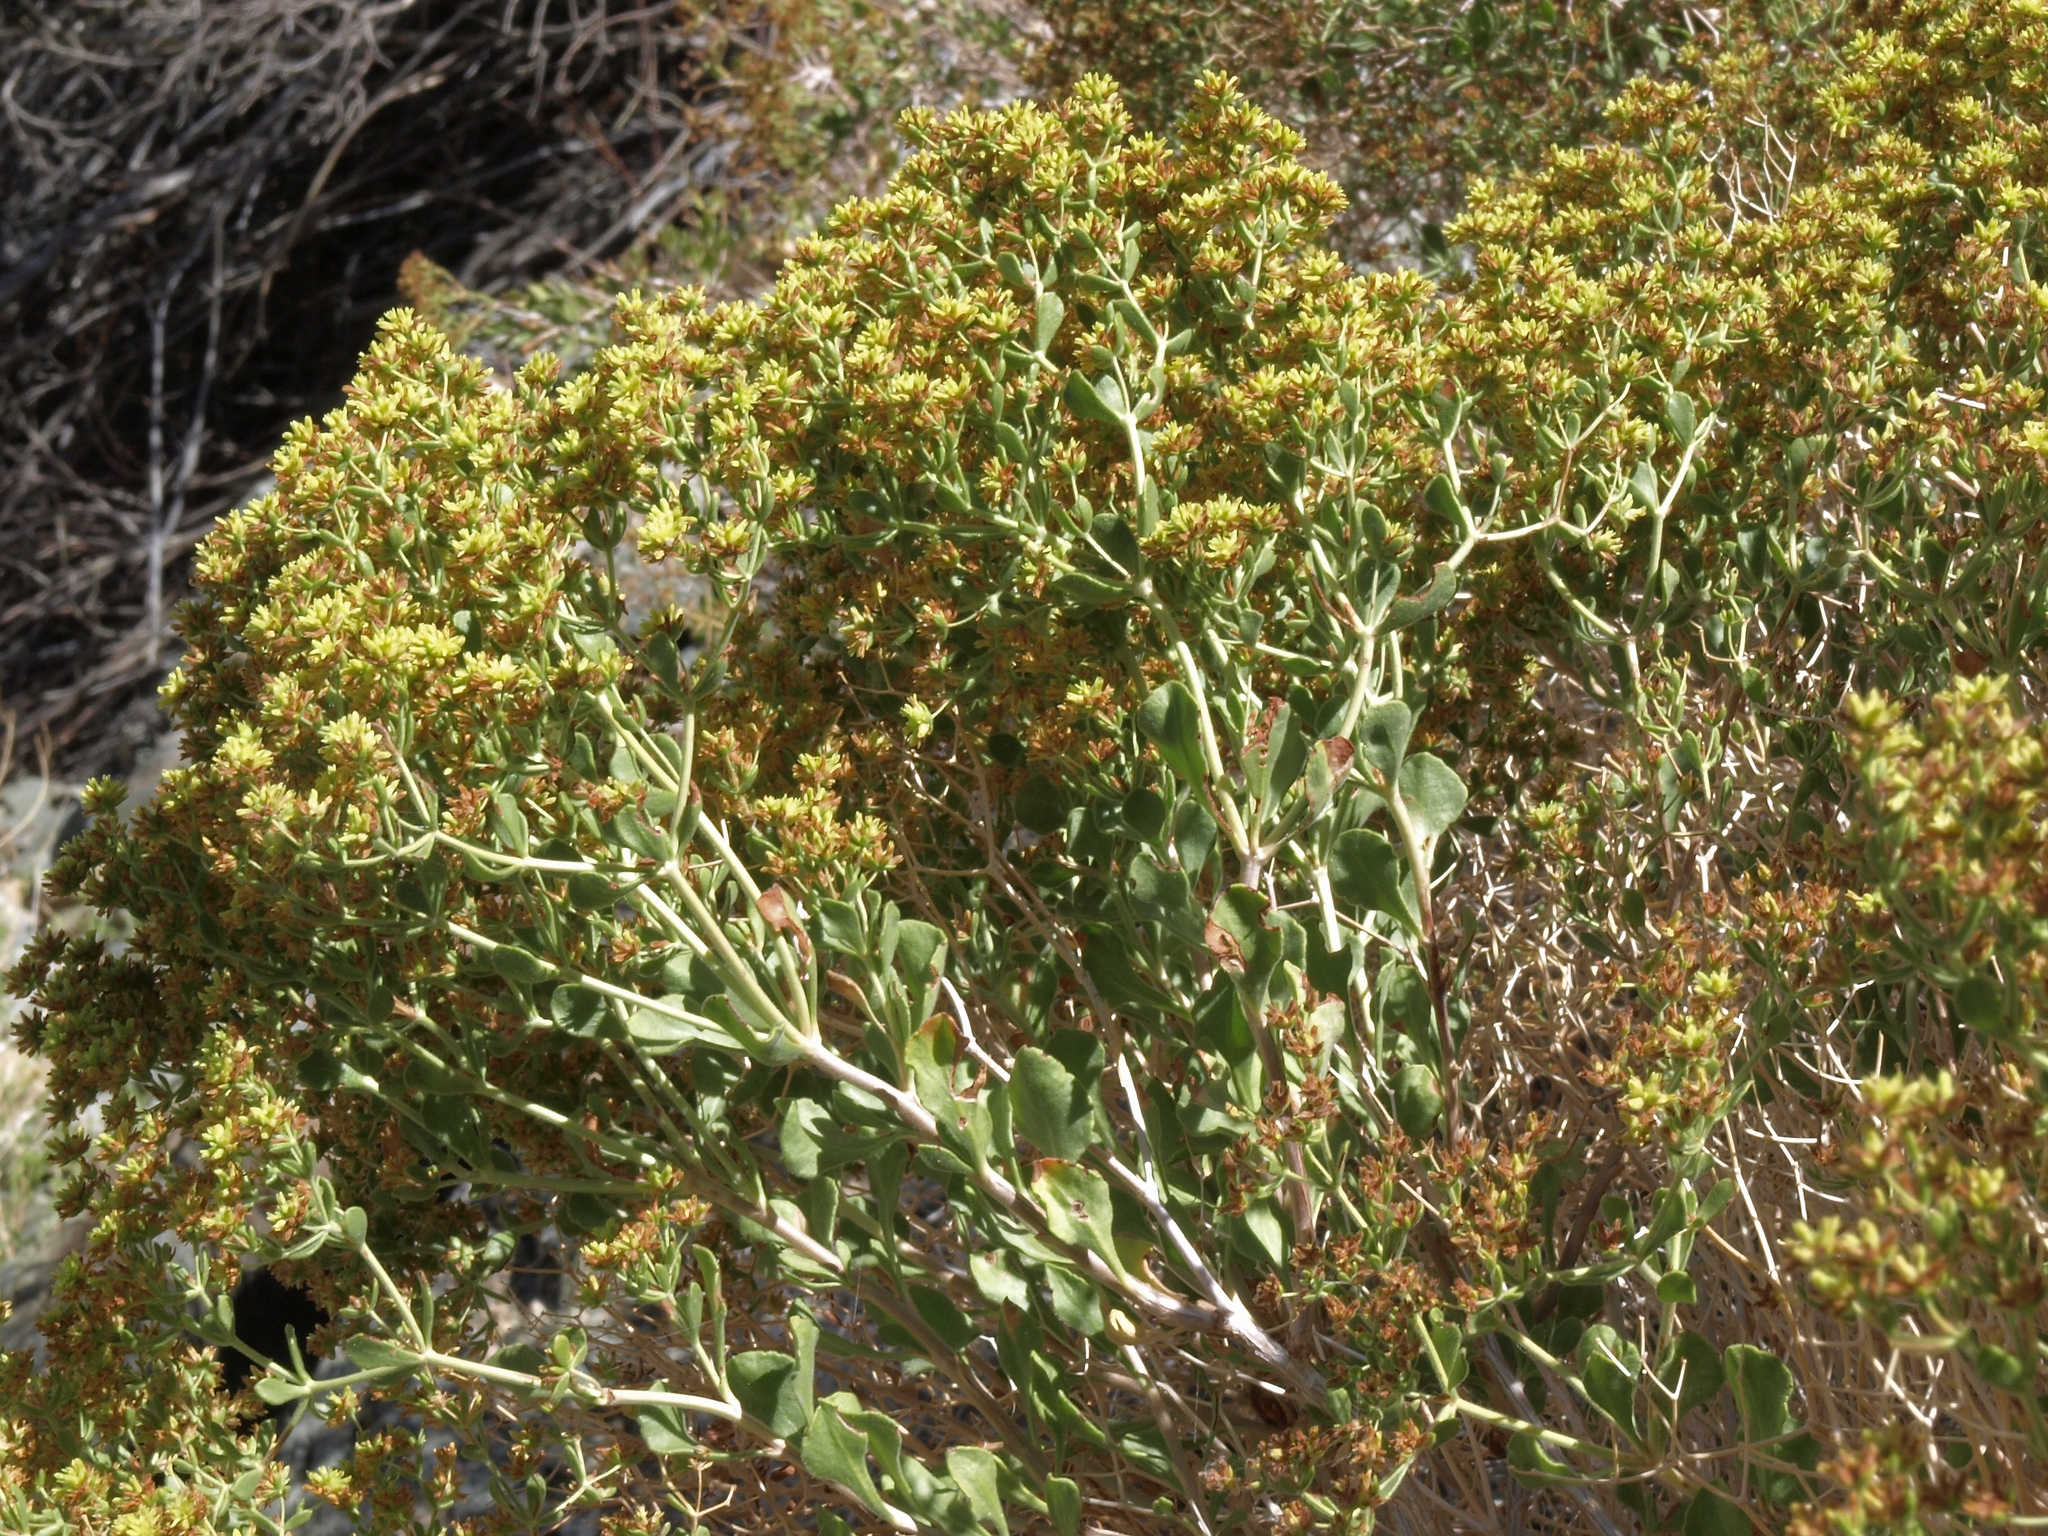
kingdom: Plantae
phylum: Tracheophyta
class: Magnoliopsida
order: Caryophyllales
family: Polygonaceae
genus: Dedeckera
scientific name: Dedeckera eurekensis
